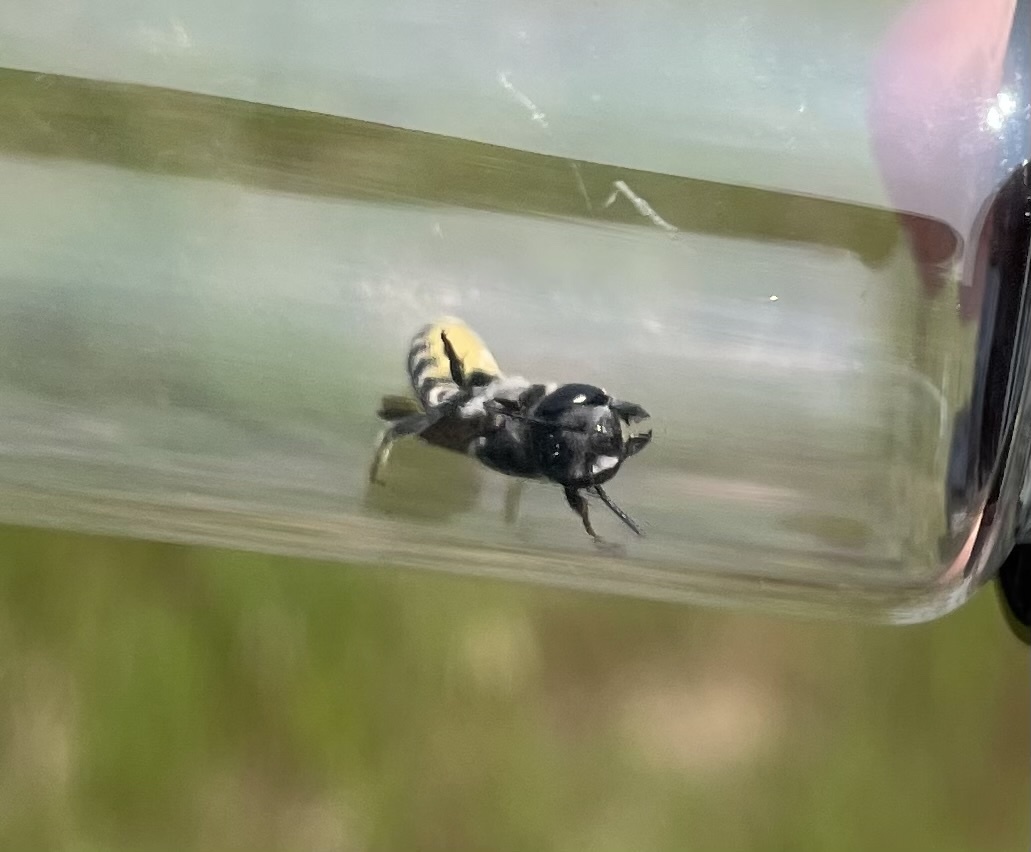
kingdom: Animalia
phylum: Arthropoda
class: Insecta
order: Hymenoptera
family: Megachilidae
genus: Megachile
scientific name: Megachile georgica
